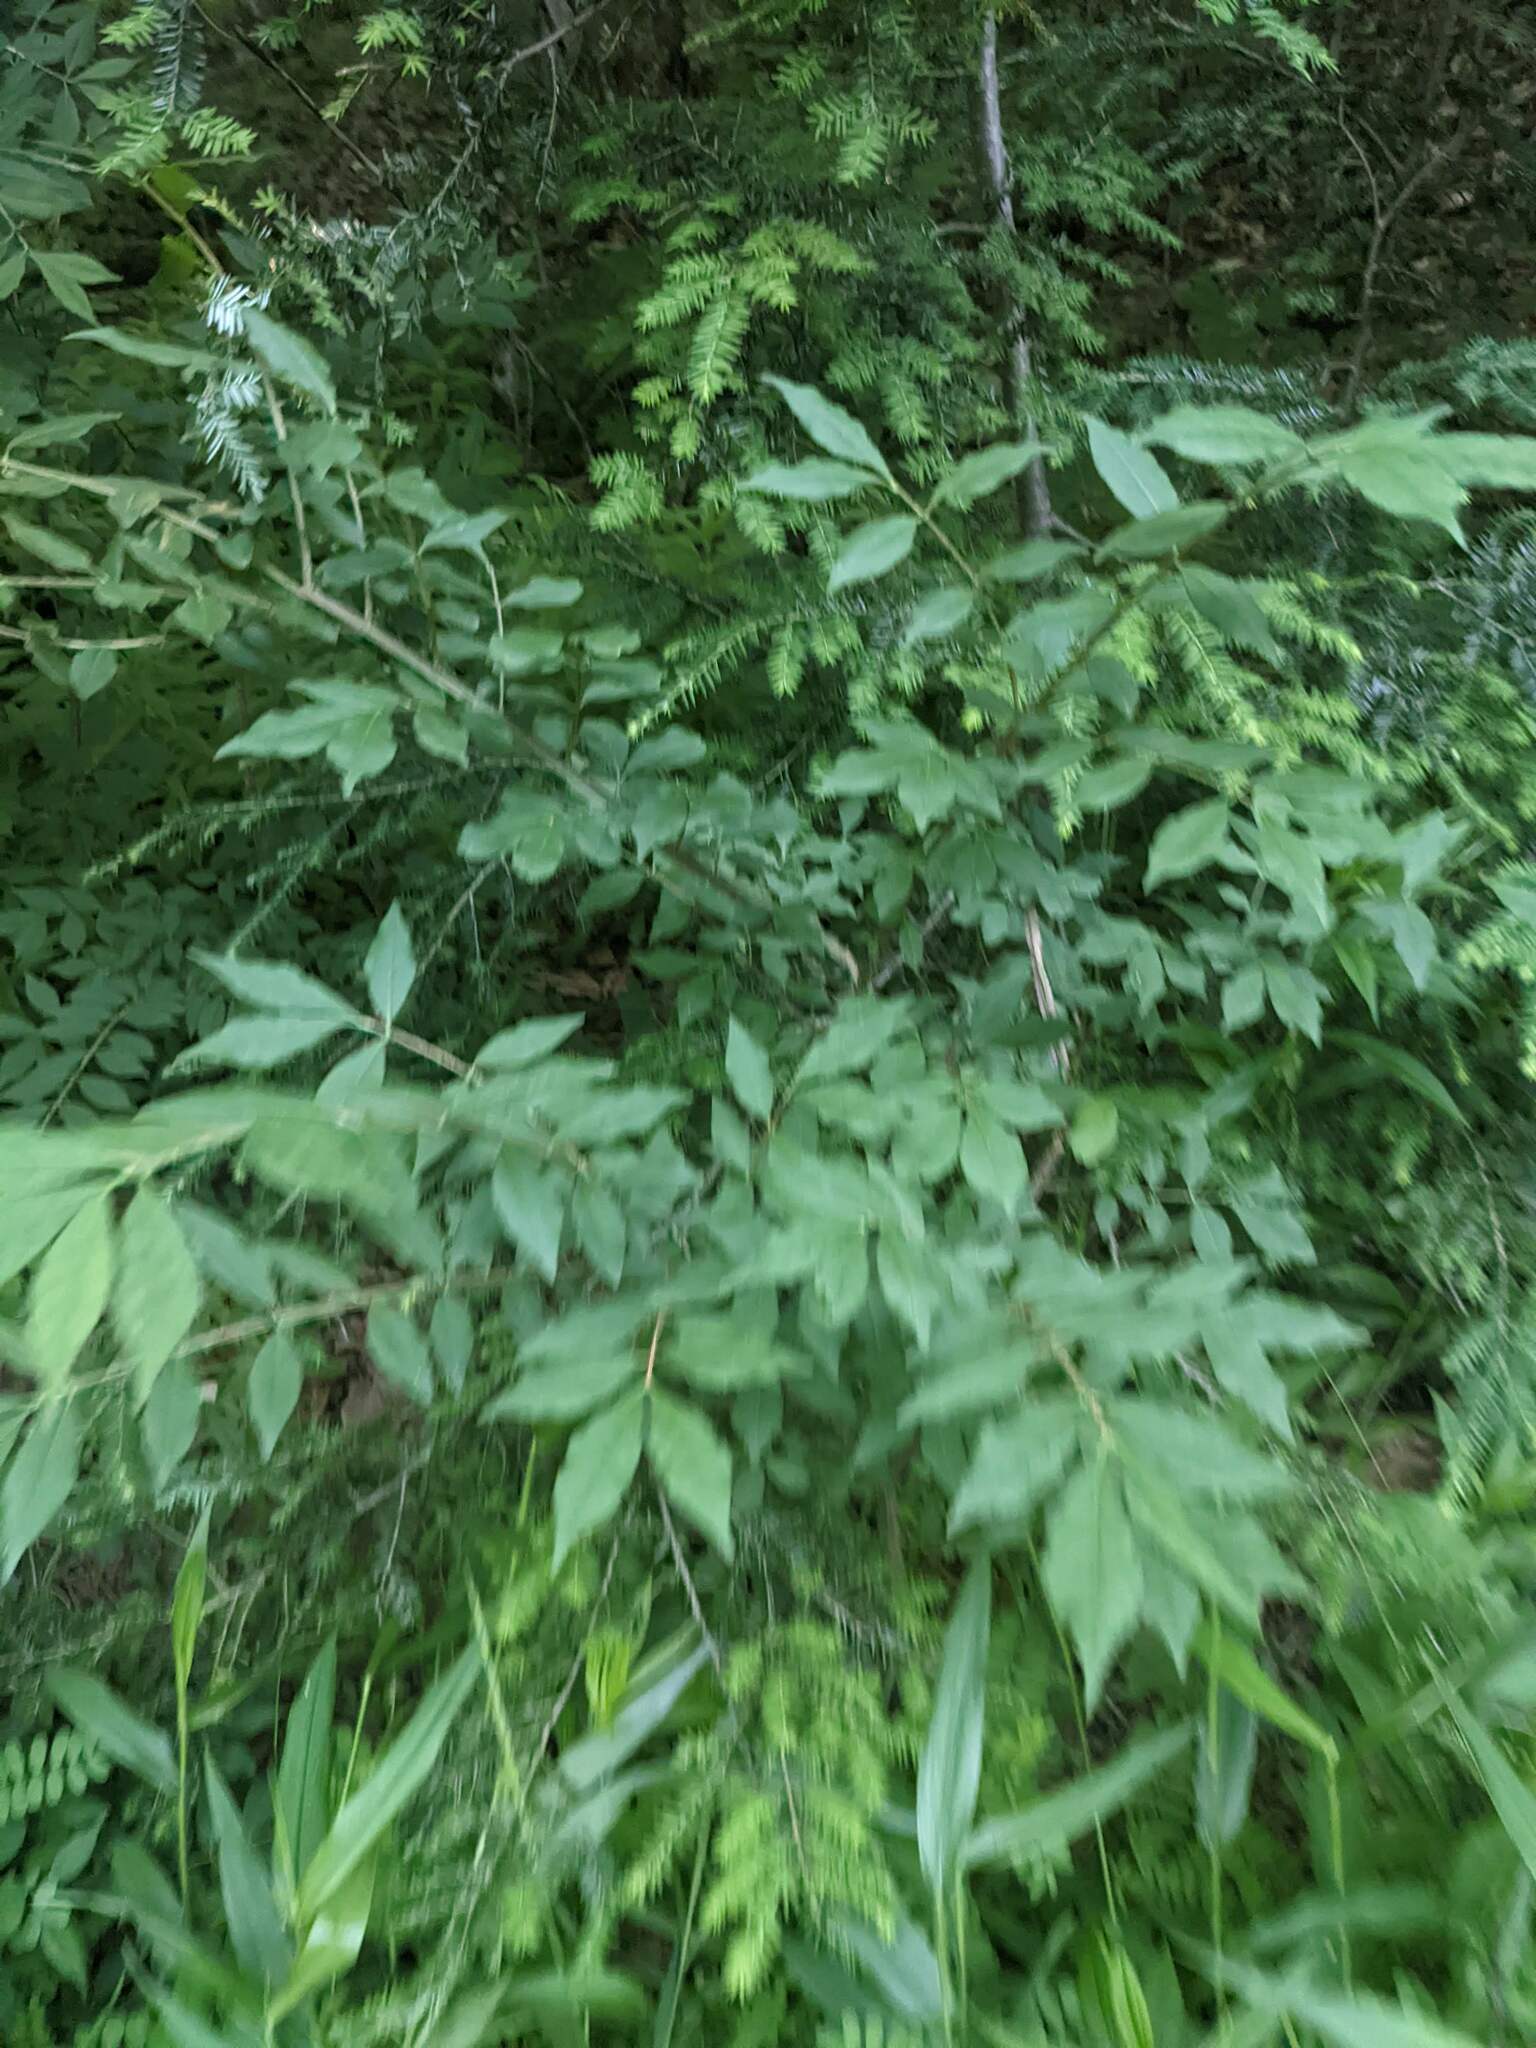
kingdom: Plantae
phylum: Tracheophyta
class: Pinopsida
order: Pinales
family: Pinaceae
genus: Tsuga
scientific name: Tsuga canadensis
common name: Eastern hemlock
